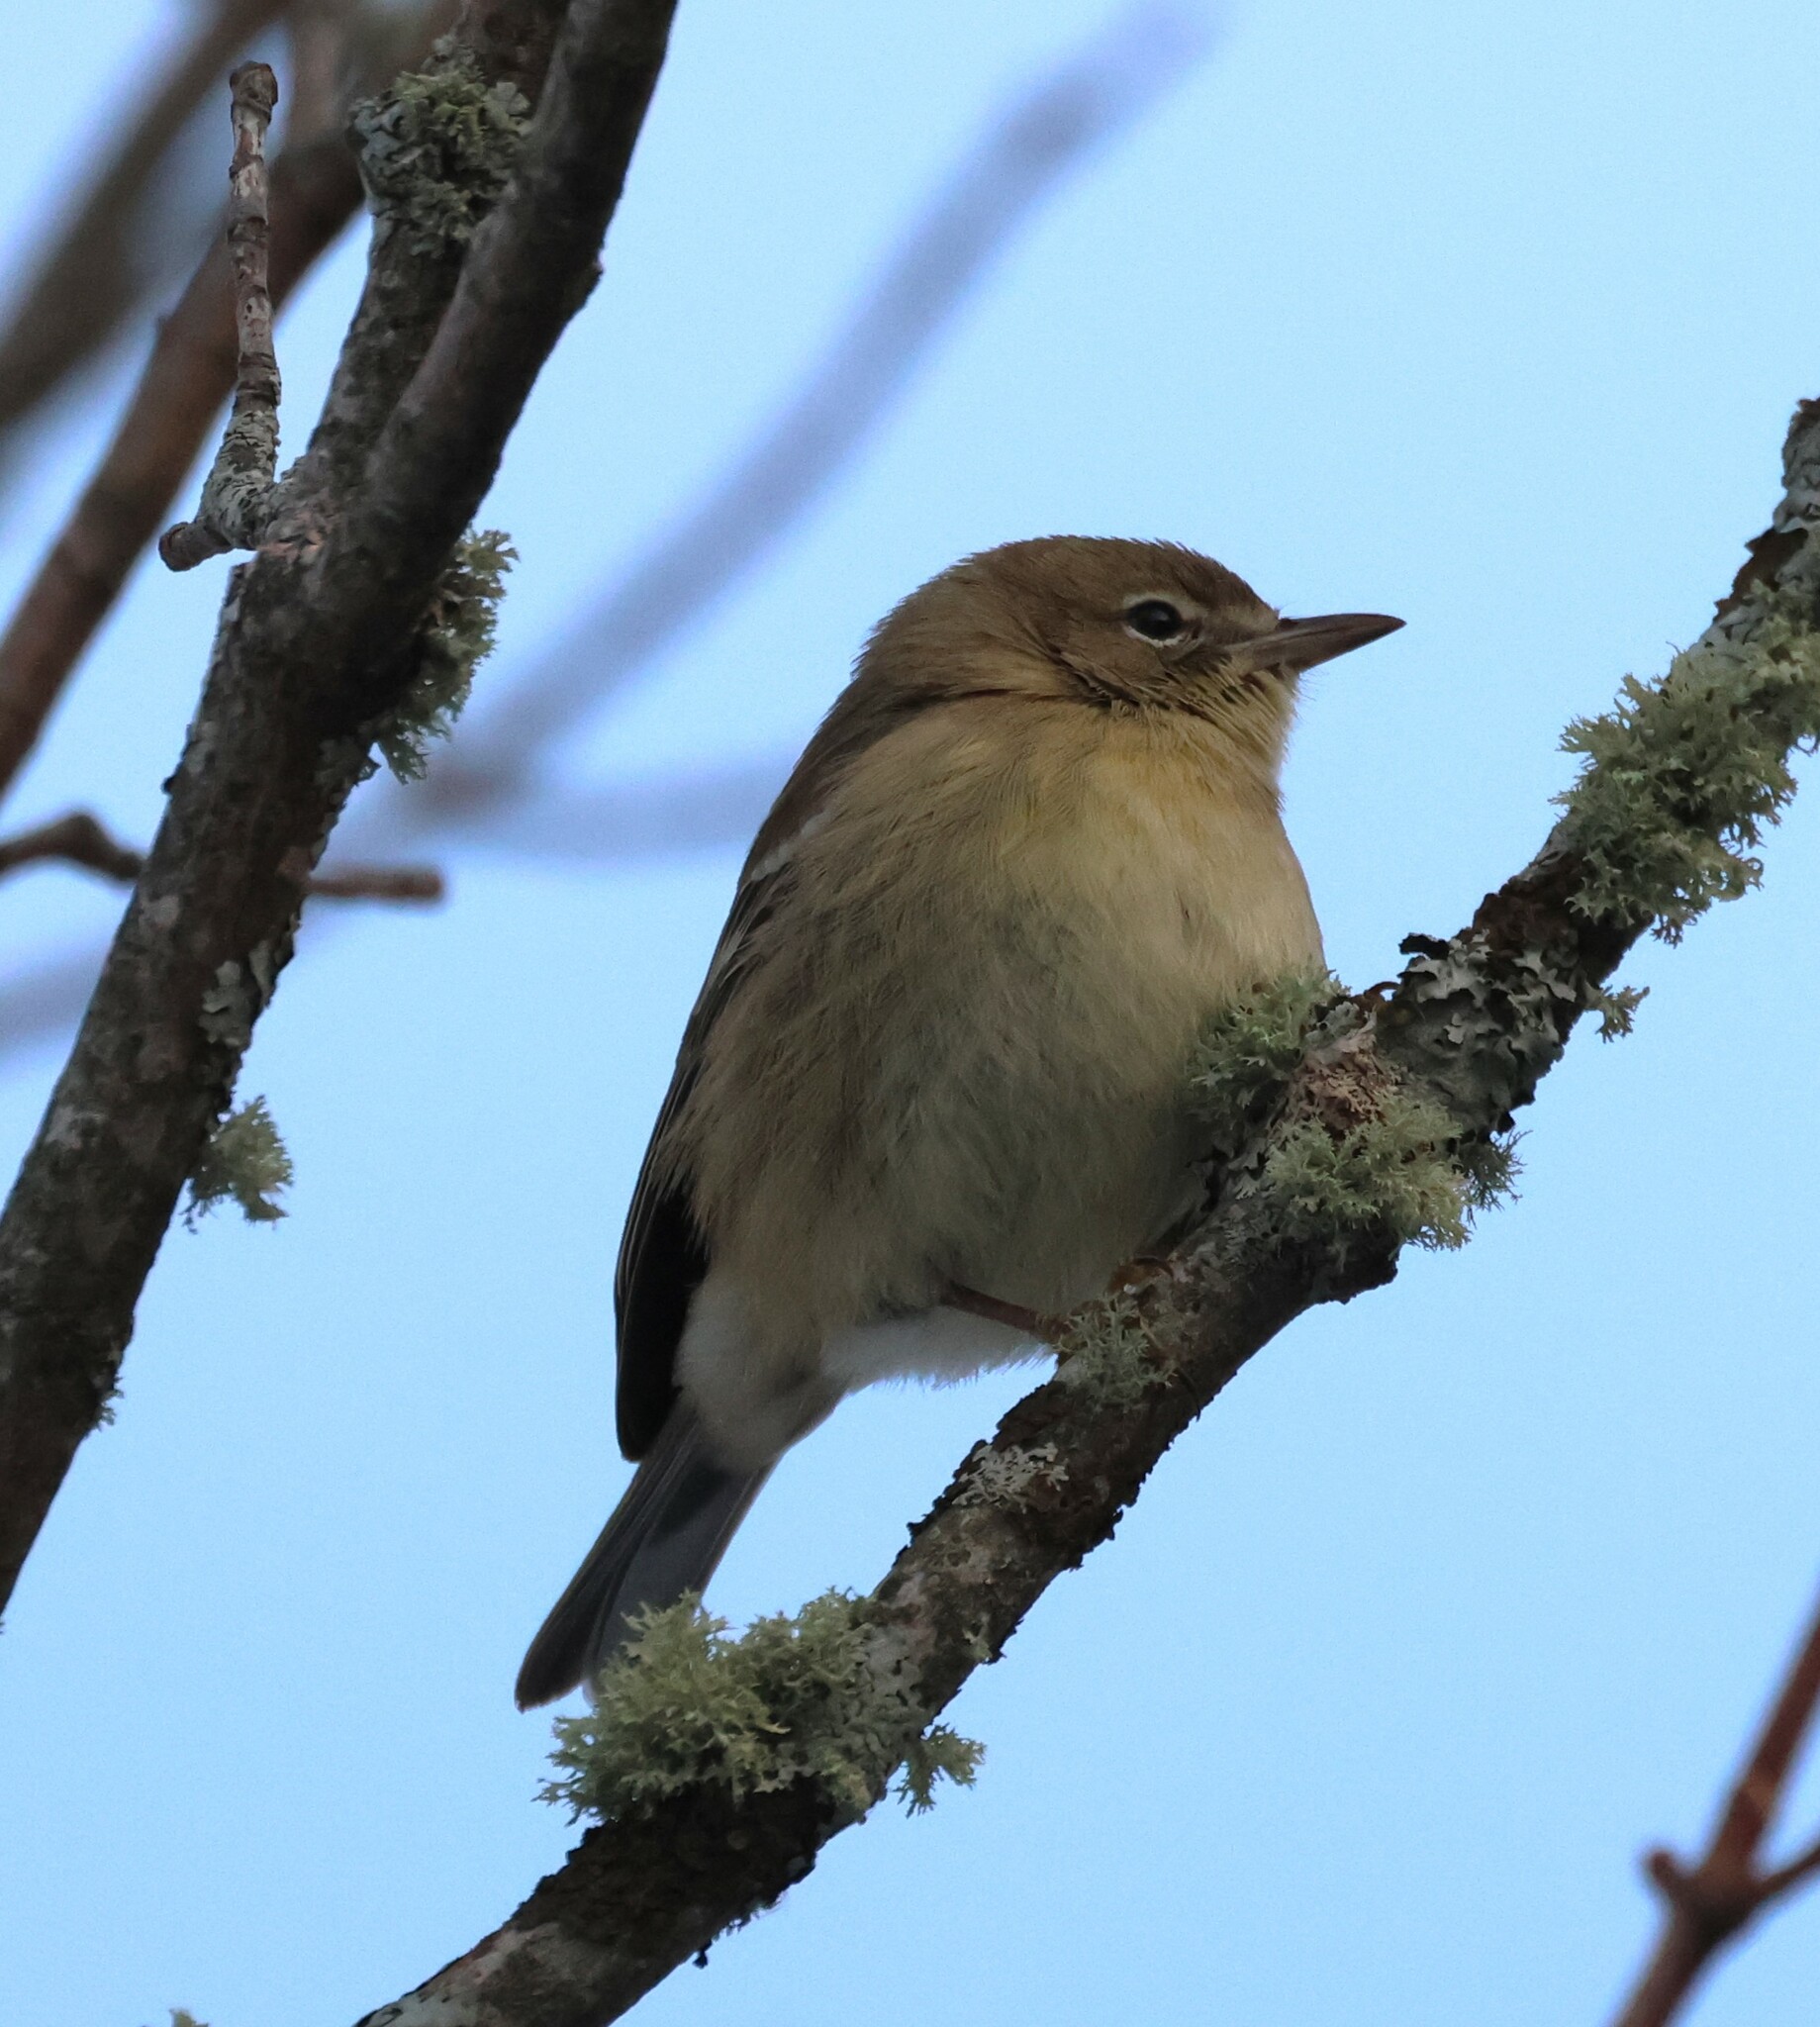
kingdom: Animalia
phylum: Chordata
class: Aves
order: Passeriformes
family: Parulidae
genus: Setophaga
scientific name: Setophaga pinus
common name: Pine warbler
